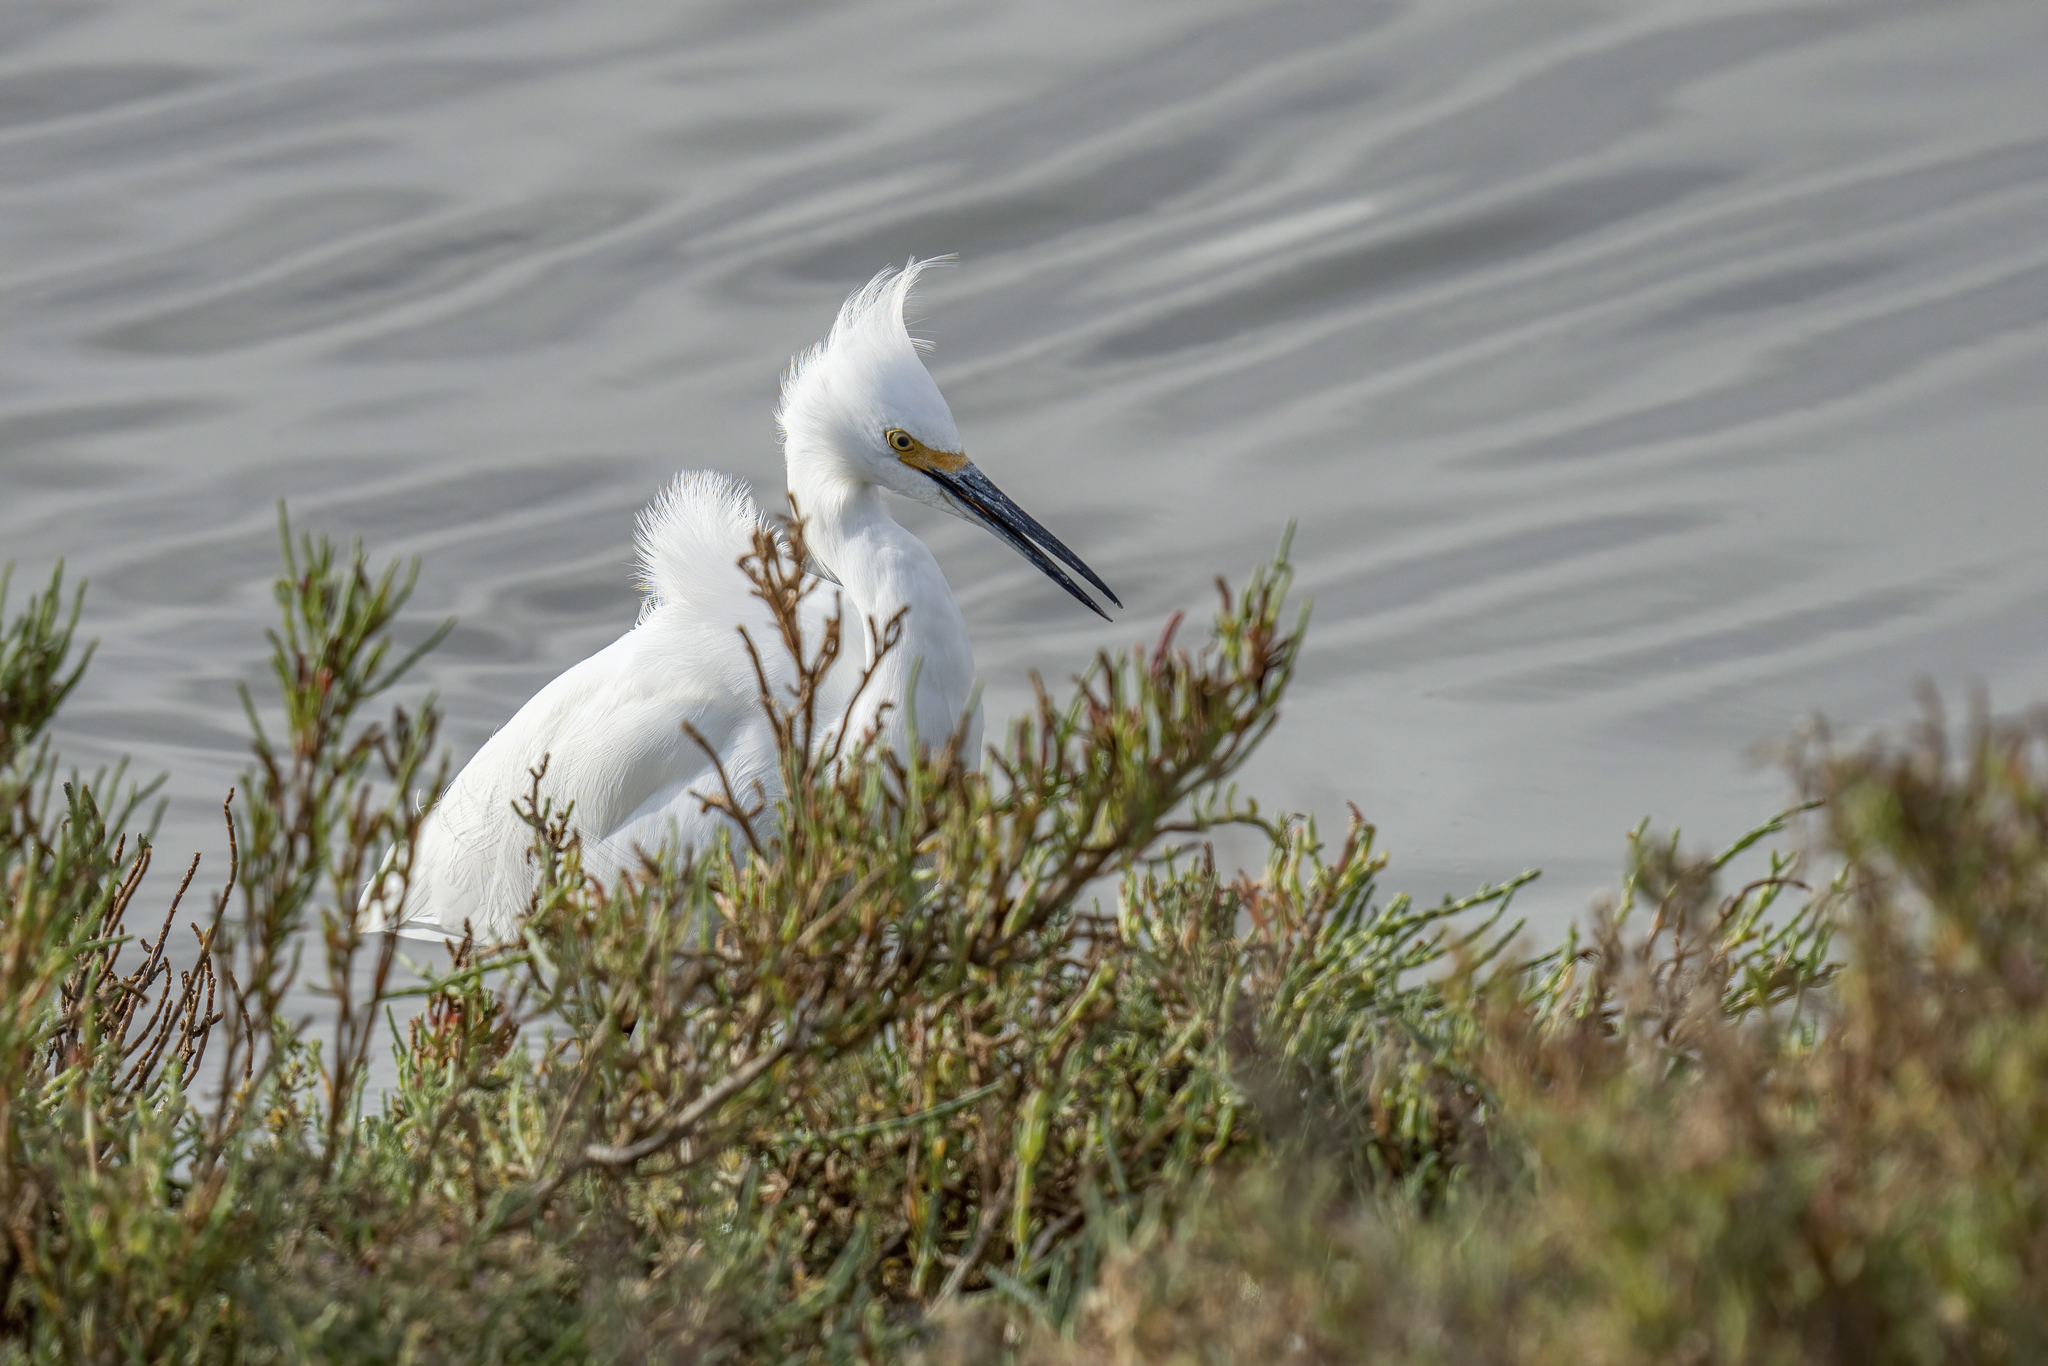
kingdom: Animalia
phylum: Chordata
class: Aves
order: Pelecaniformes
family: Ardeidae
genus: Egretta
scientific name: Egretta thula
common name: Snowy egret
